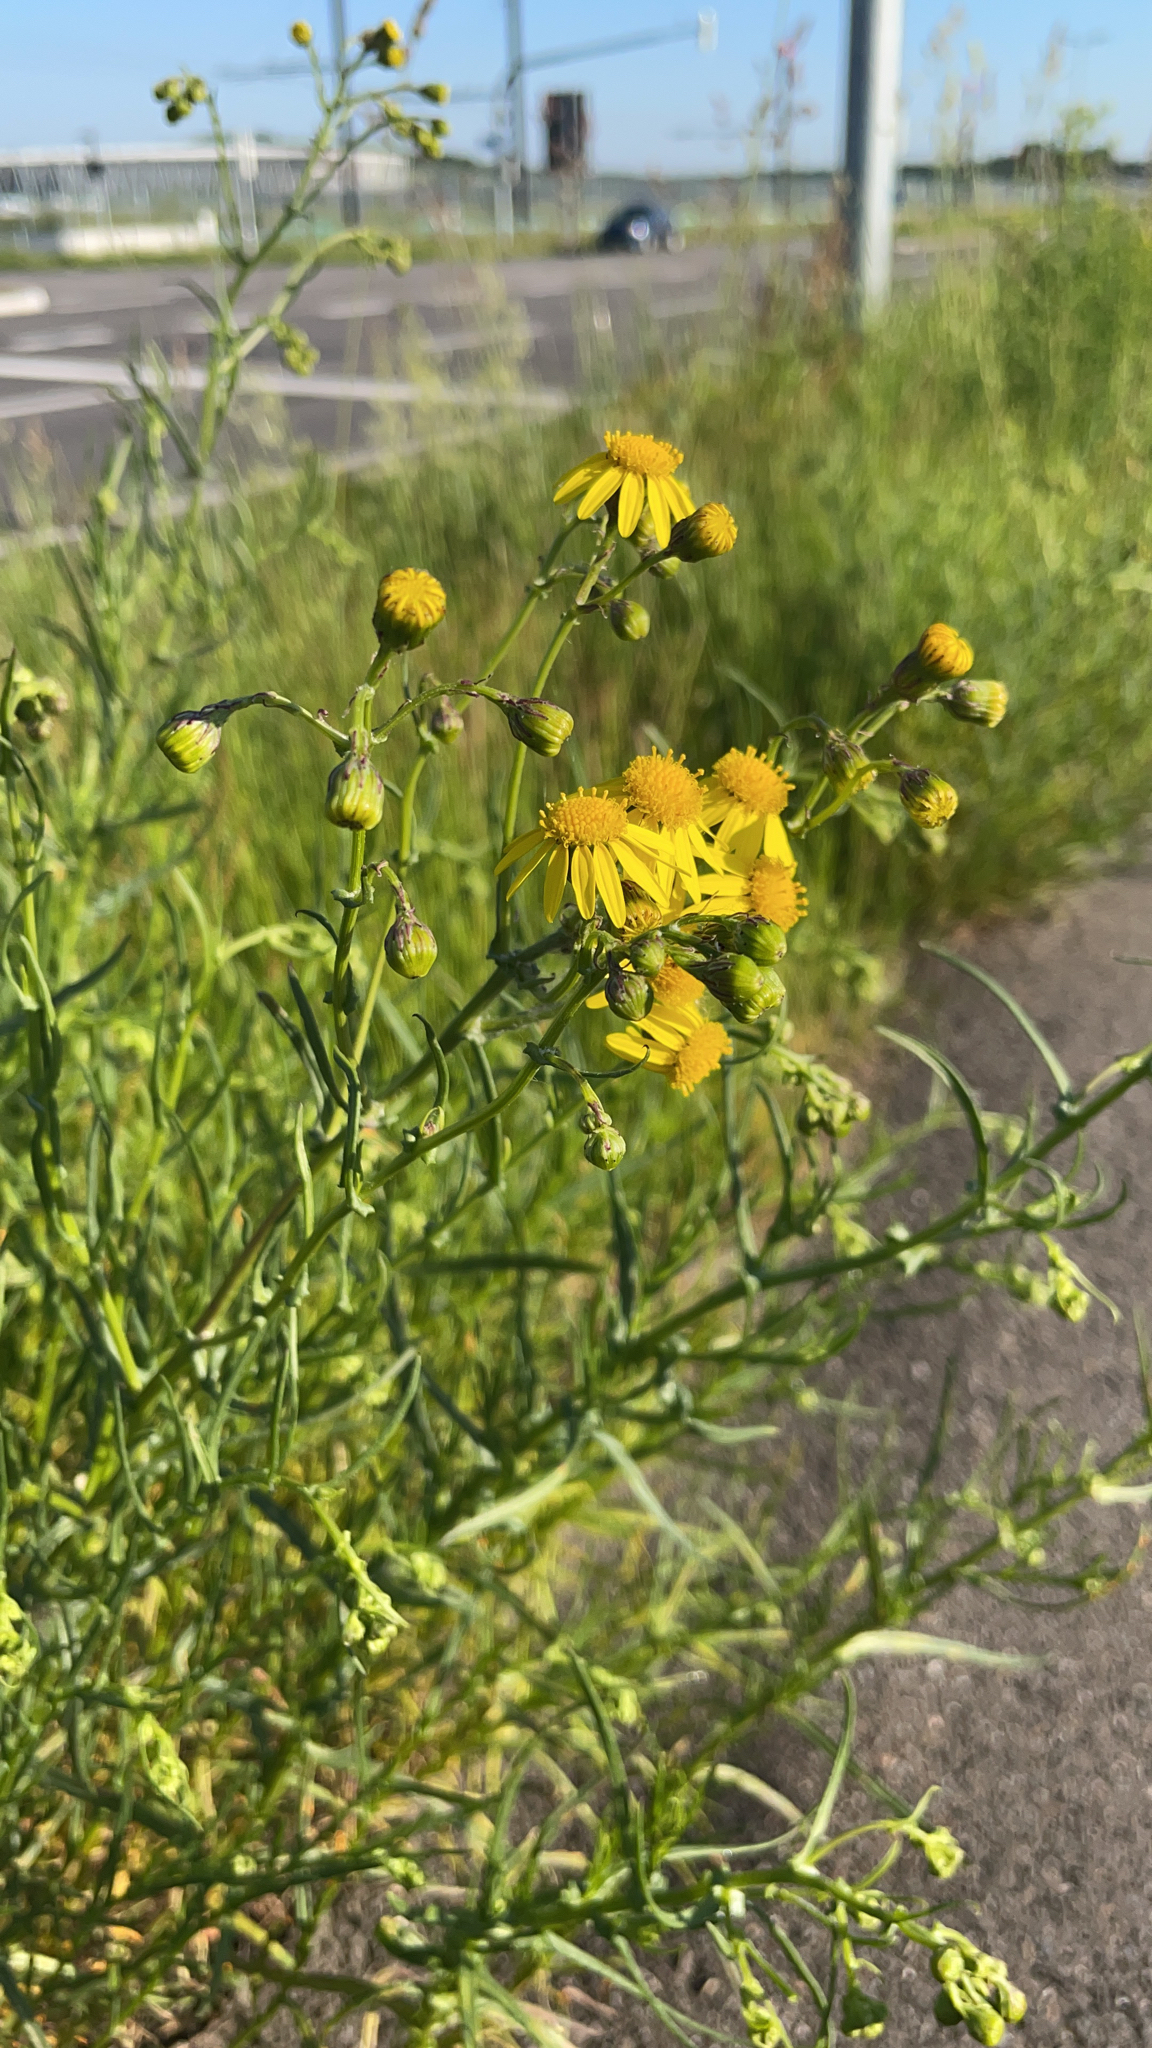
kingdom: Plantae
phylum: Tracheophyta
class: Magnoliopsida
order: Asterales
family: Asteraceae
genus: Senecio
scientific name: Senecio inaequidens
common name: Narrow-leaved ragwort
